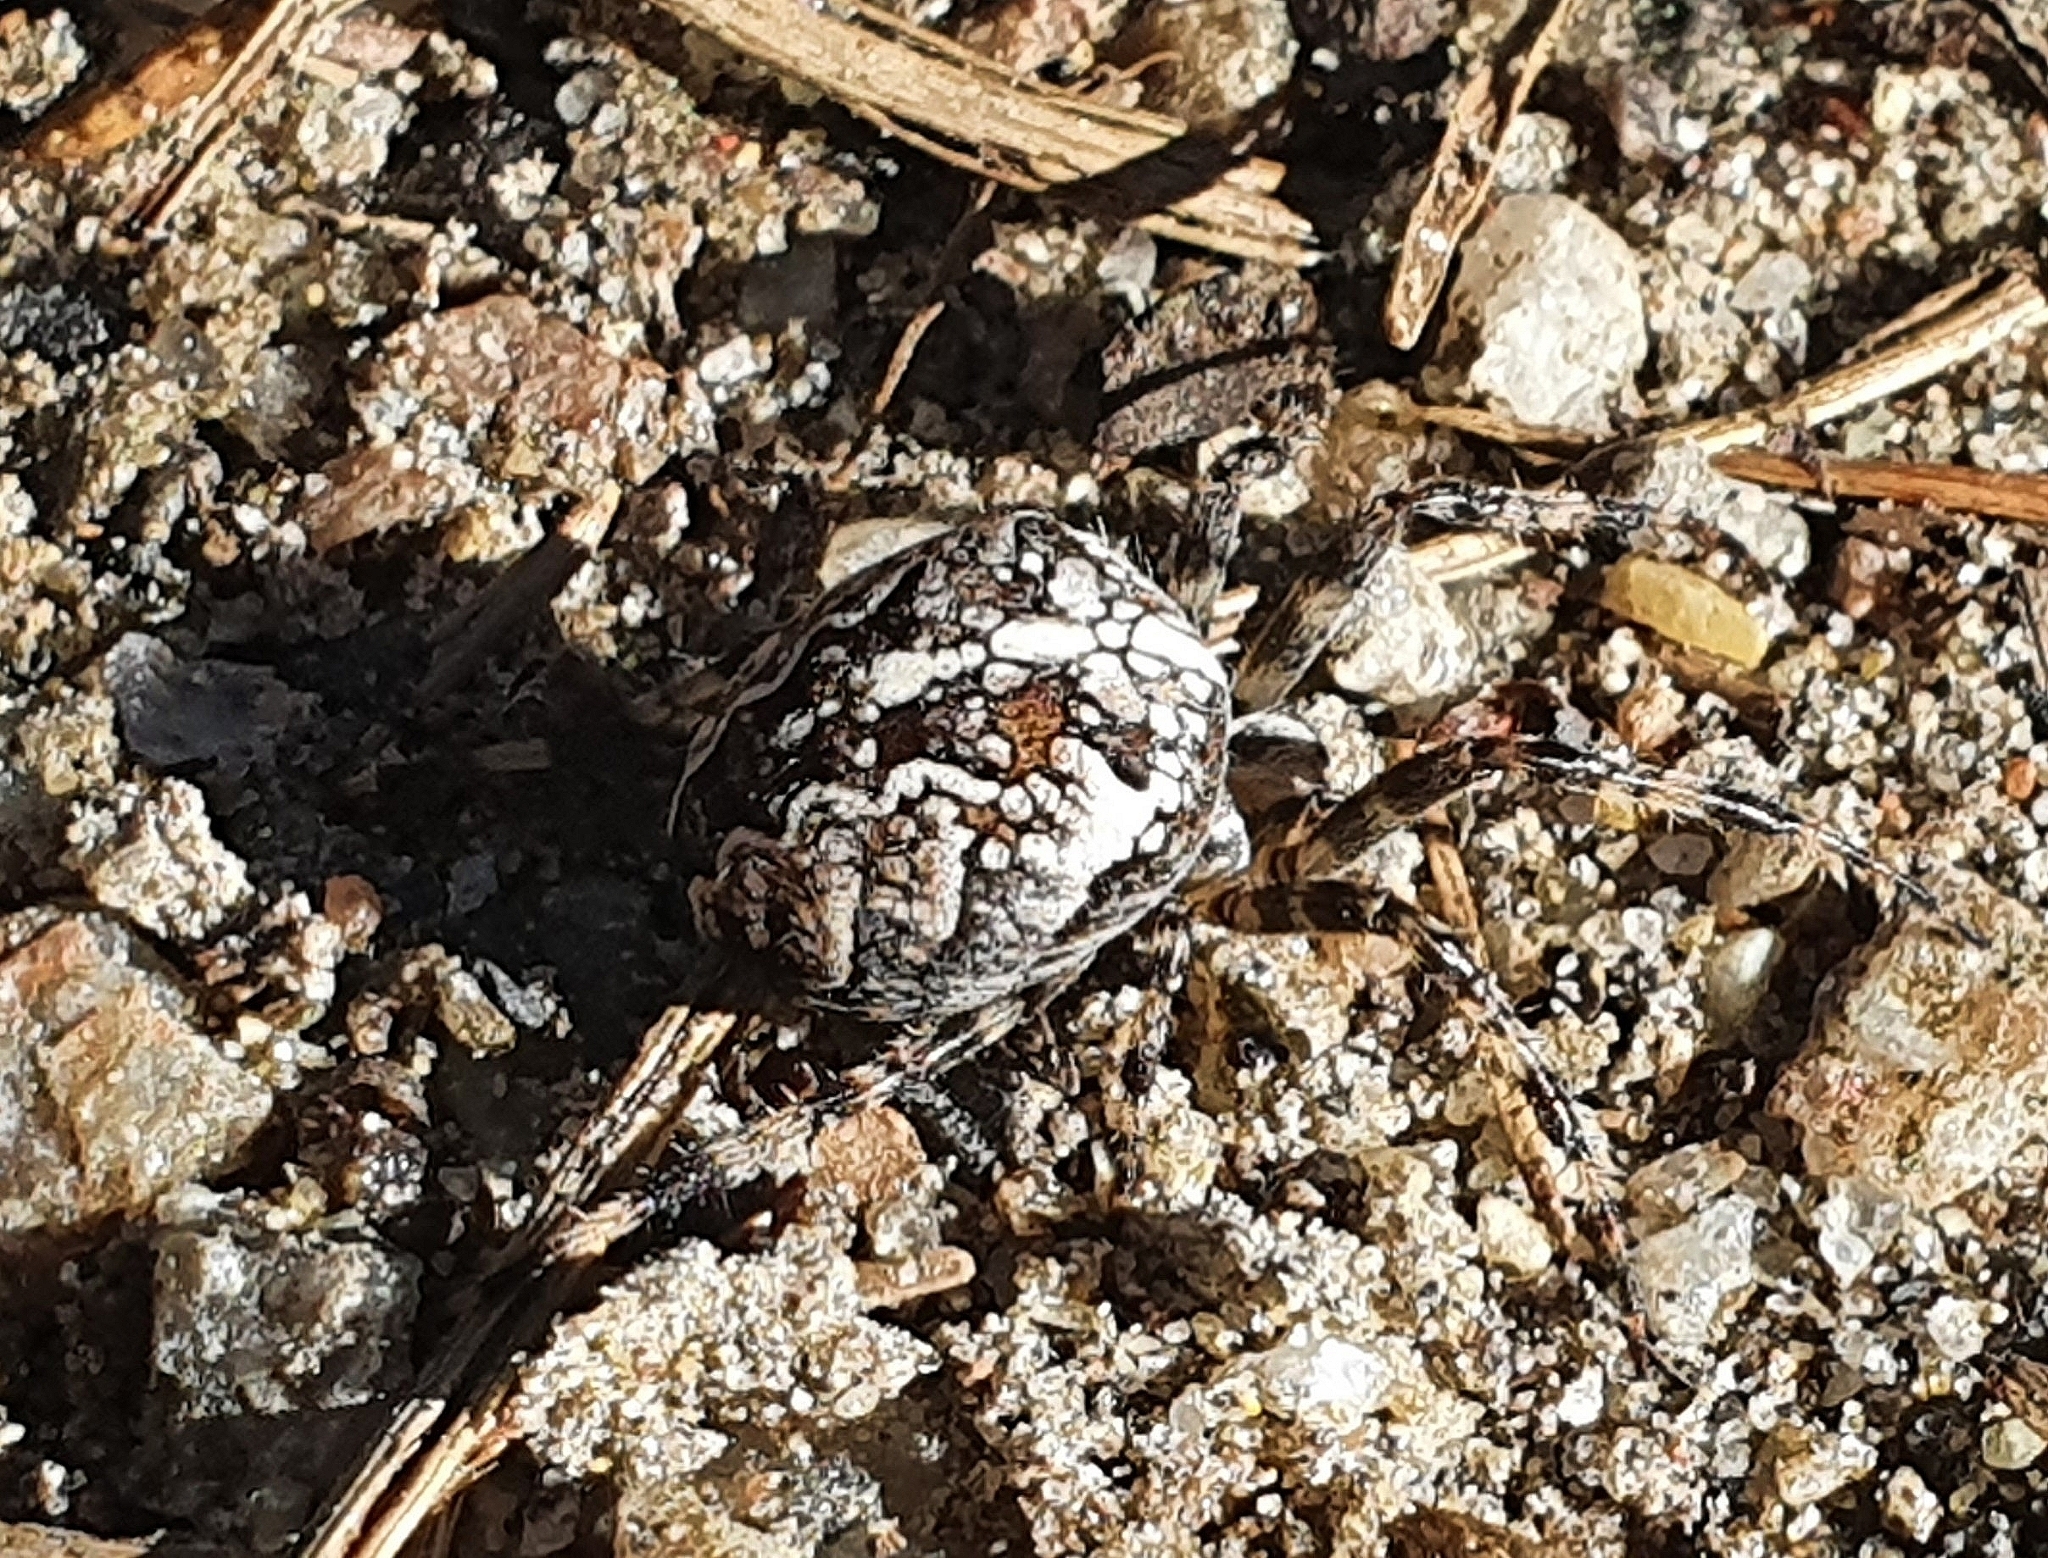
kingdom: Animalia
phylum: Arthropoda
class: Arachnida
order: Araneae
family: Araneidae
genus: Araneus
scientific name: Araneus diadematus
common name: Cross orbweaver
